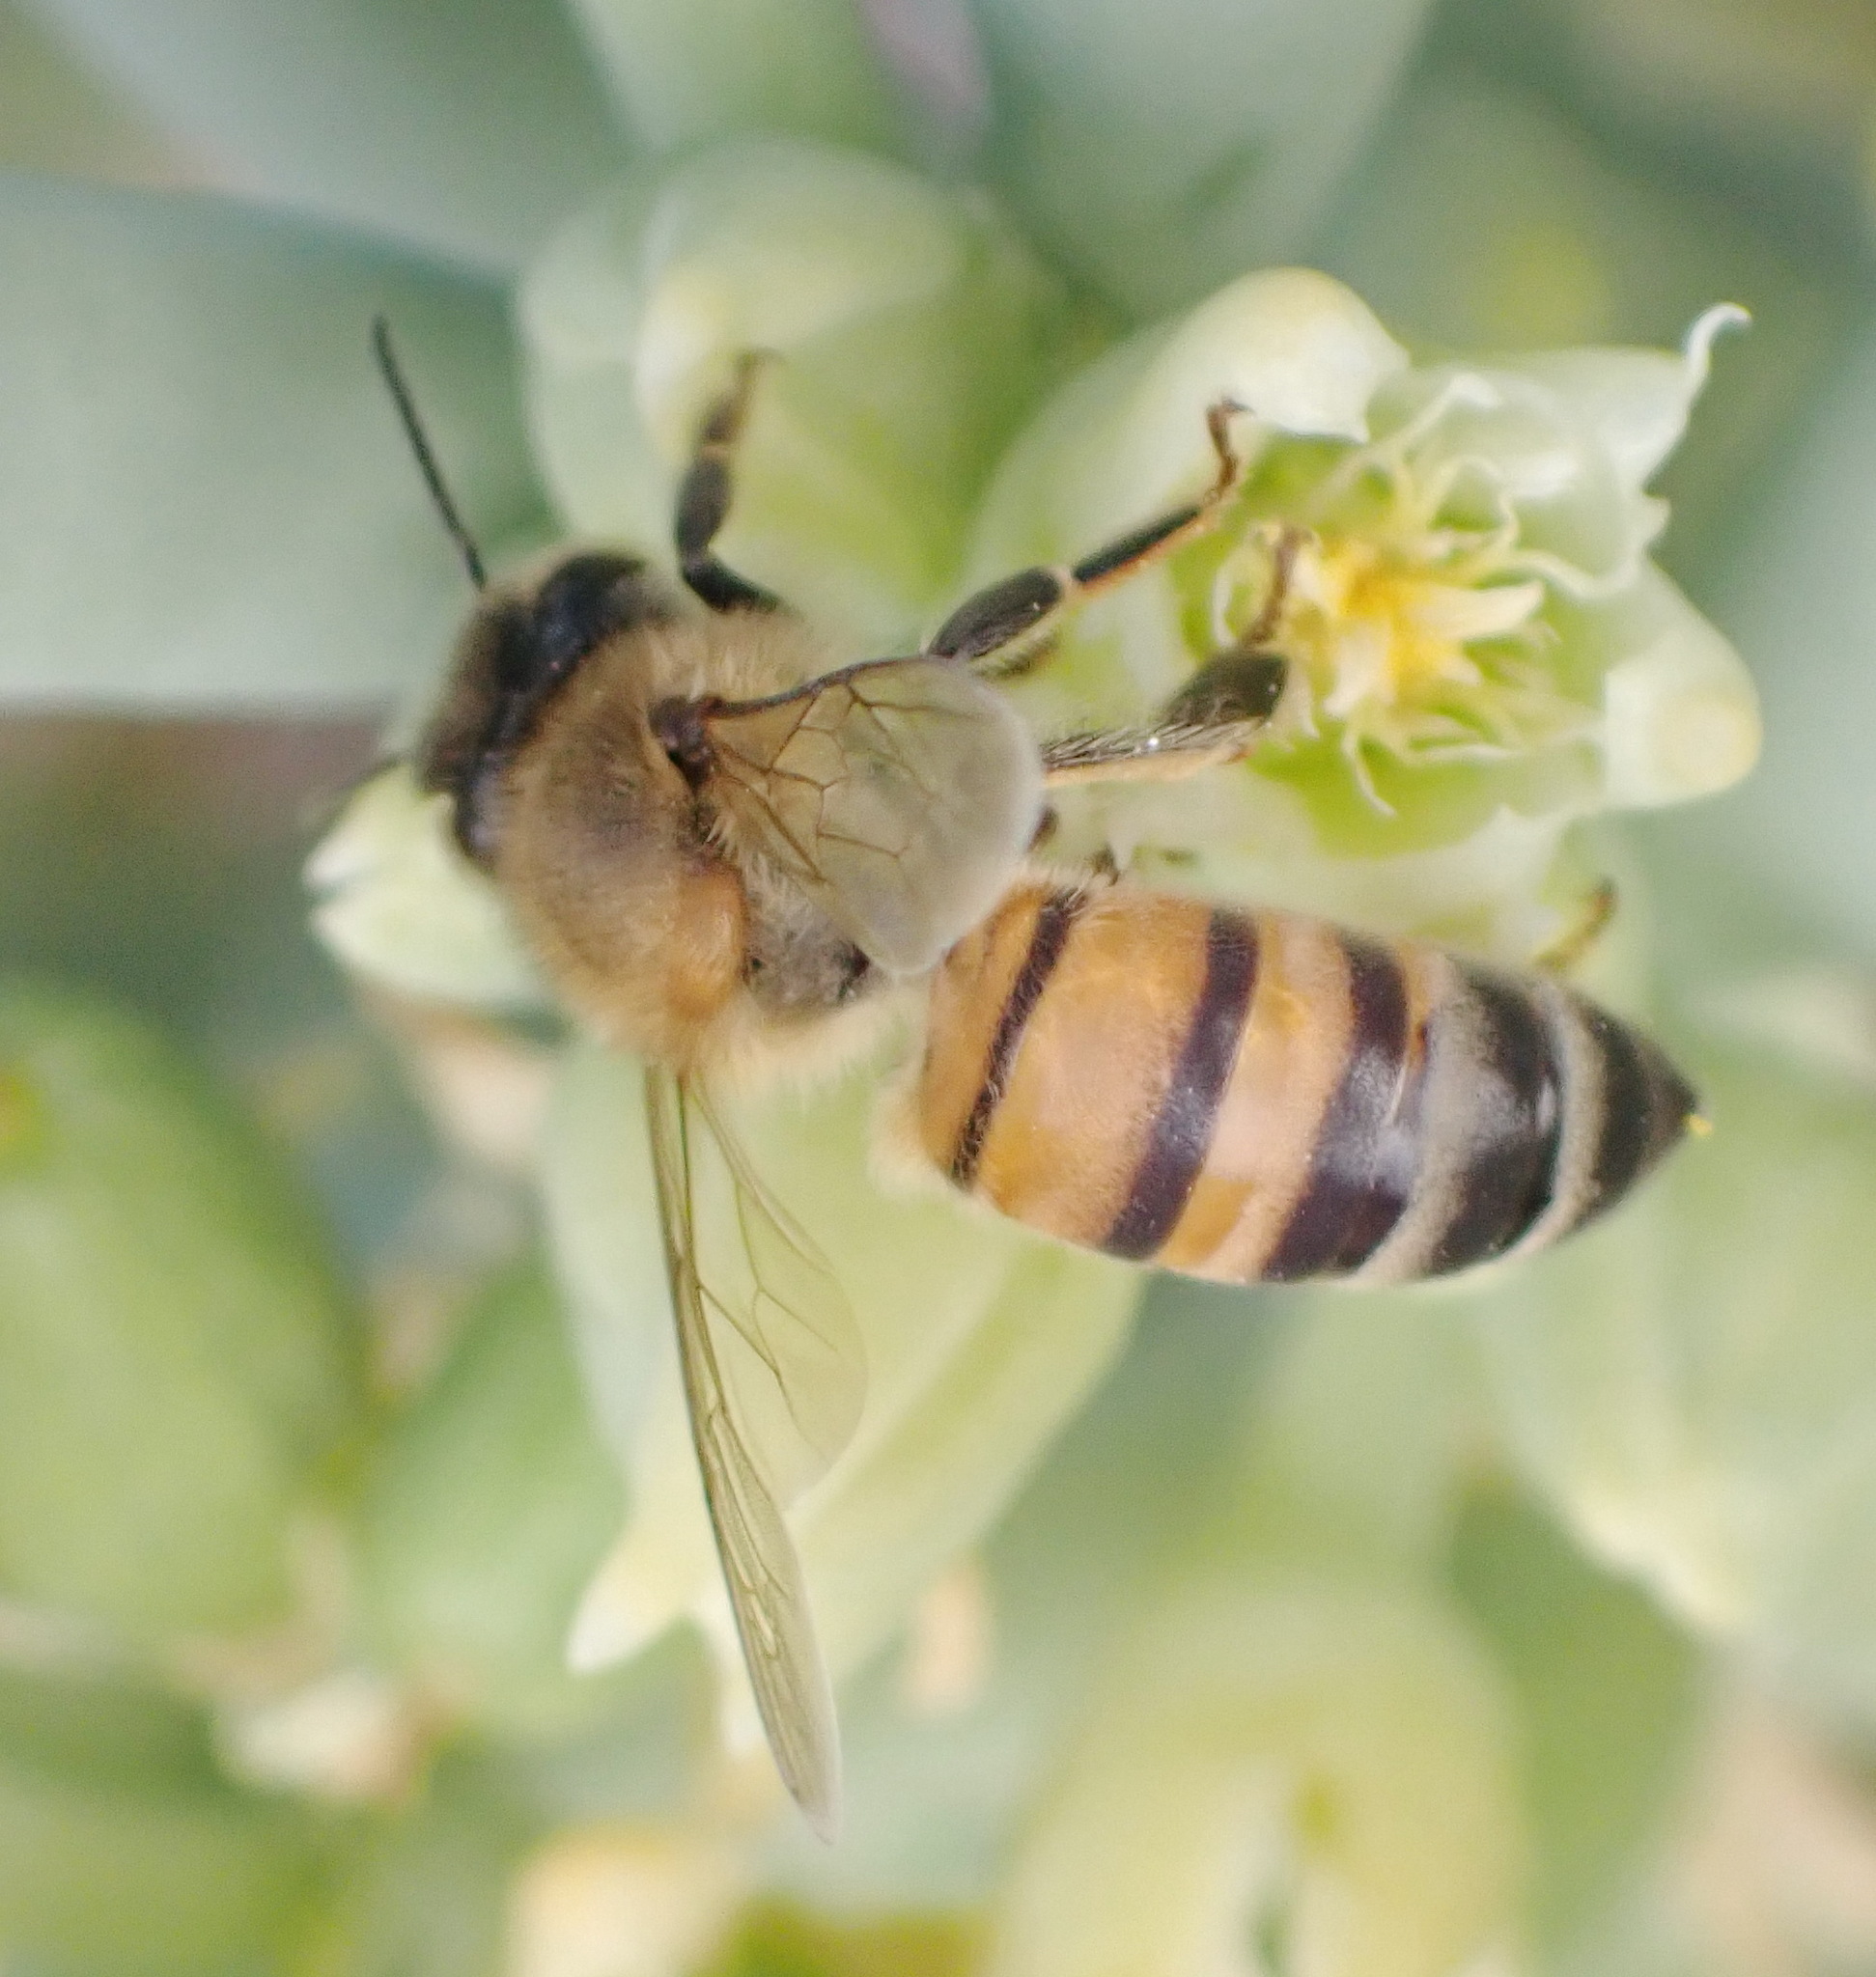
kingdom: Animalia
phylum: Arthropoda
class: Insecta
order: Hymenoptera
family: Apidae
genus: Apis
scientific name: Apis mellifera
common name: Honey bee
